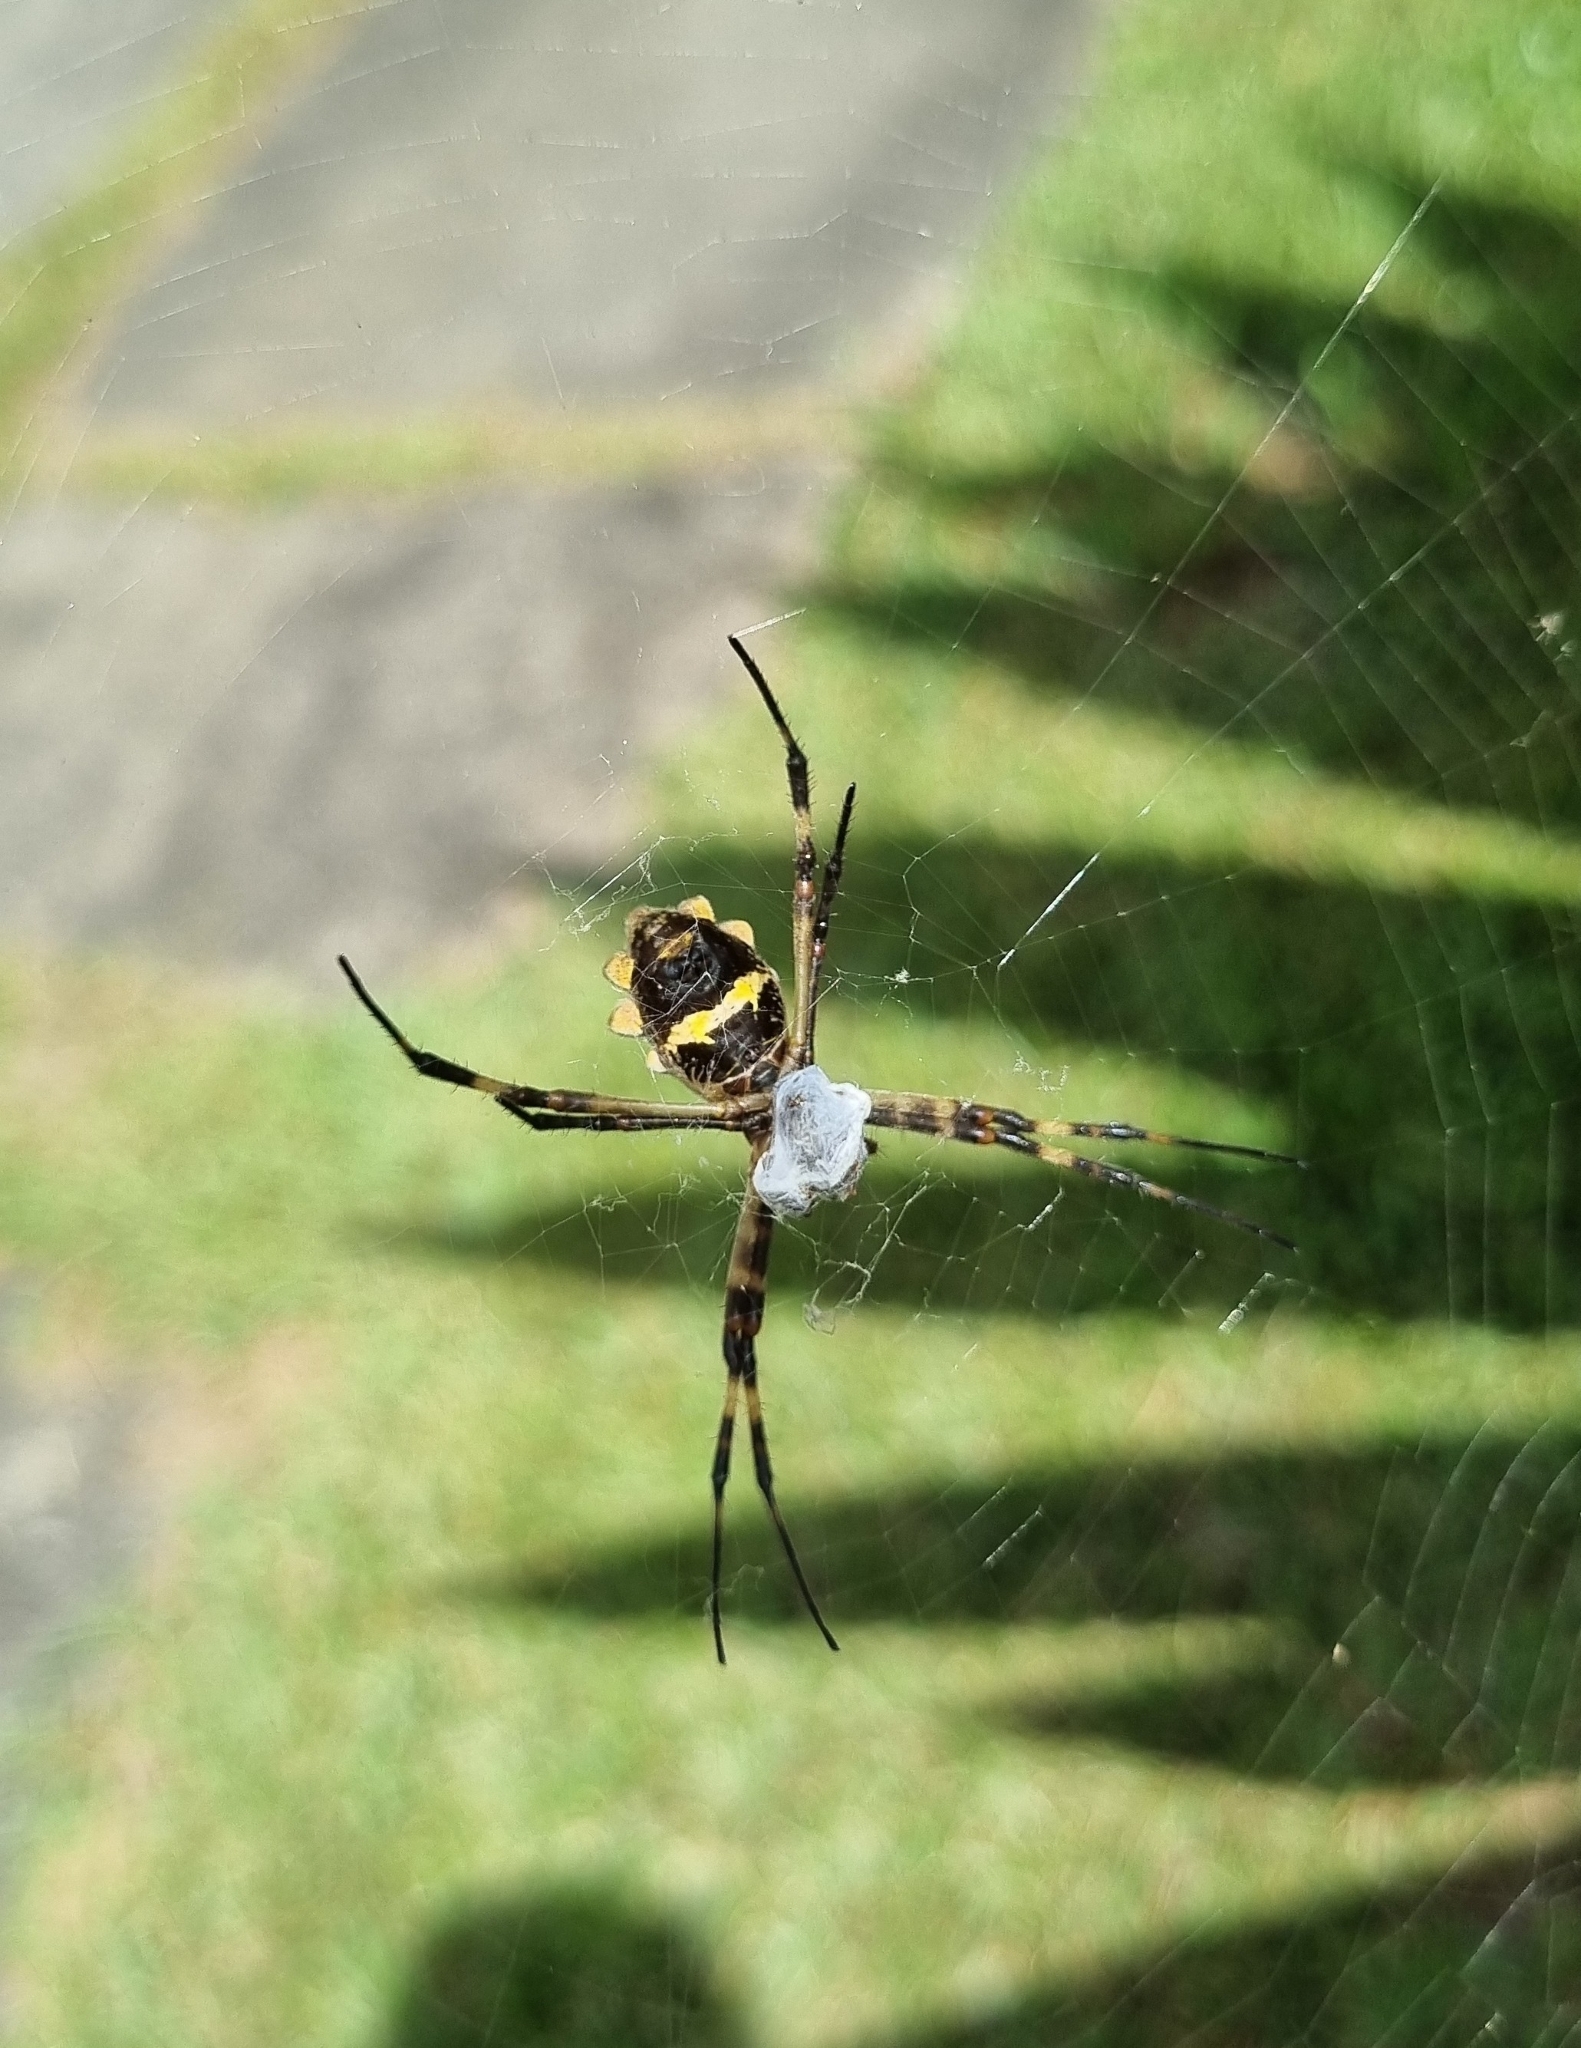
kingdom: Animalia
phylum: Arthropoda
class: Arachnida
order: Araneae
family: Araneidae
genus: Argiope
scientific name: Argiope argentata
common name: Orb weavers
